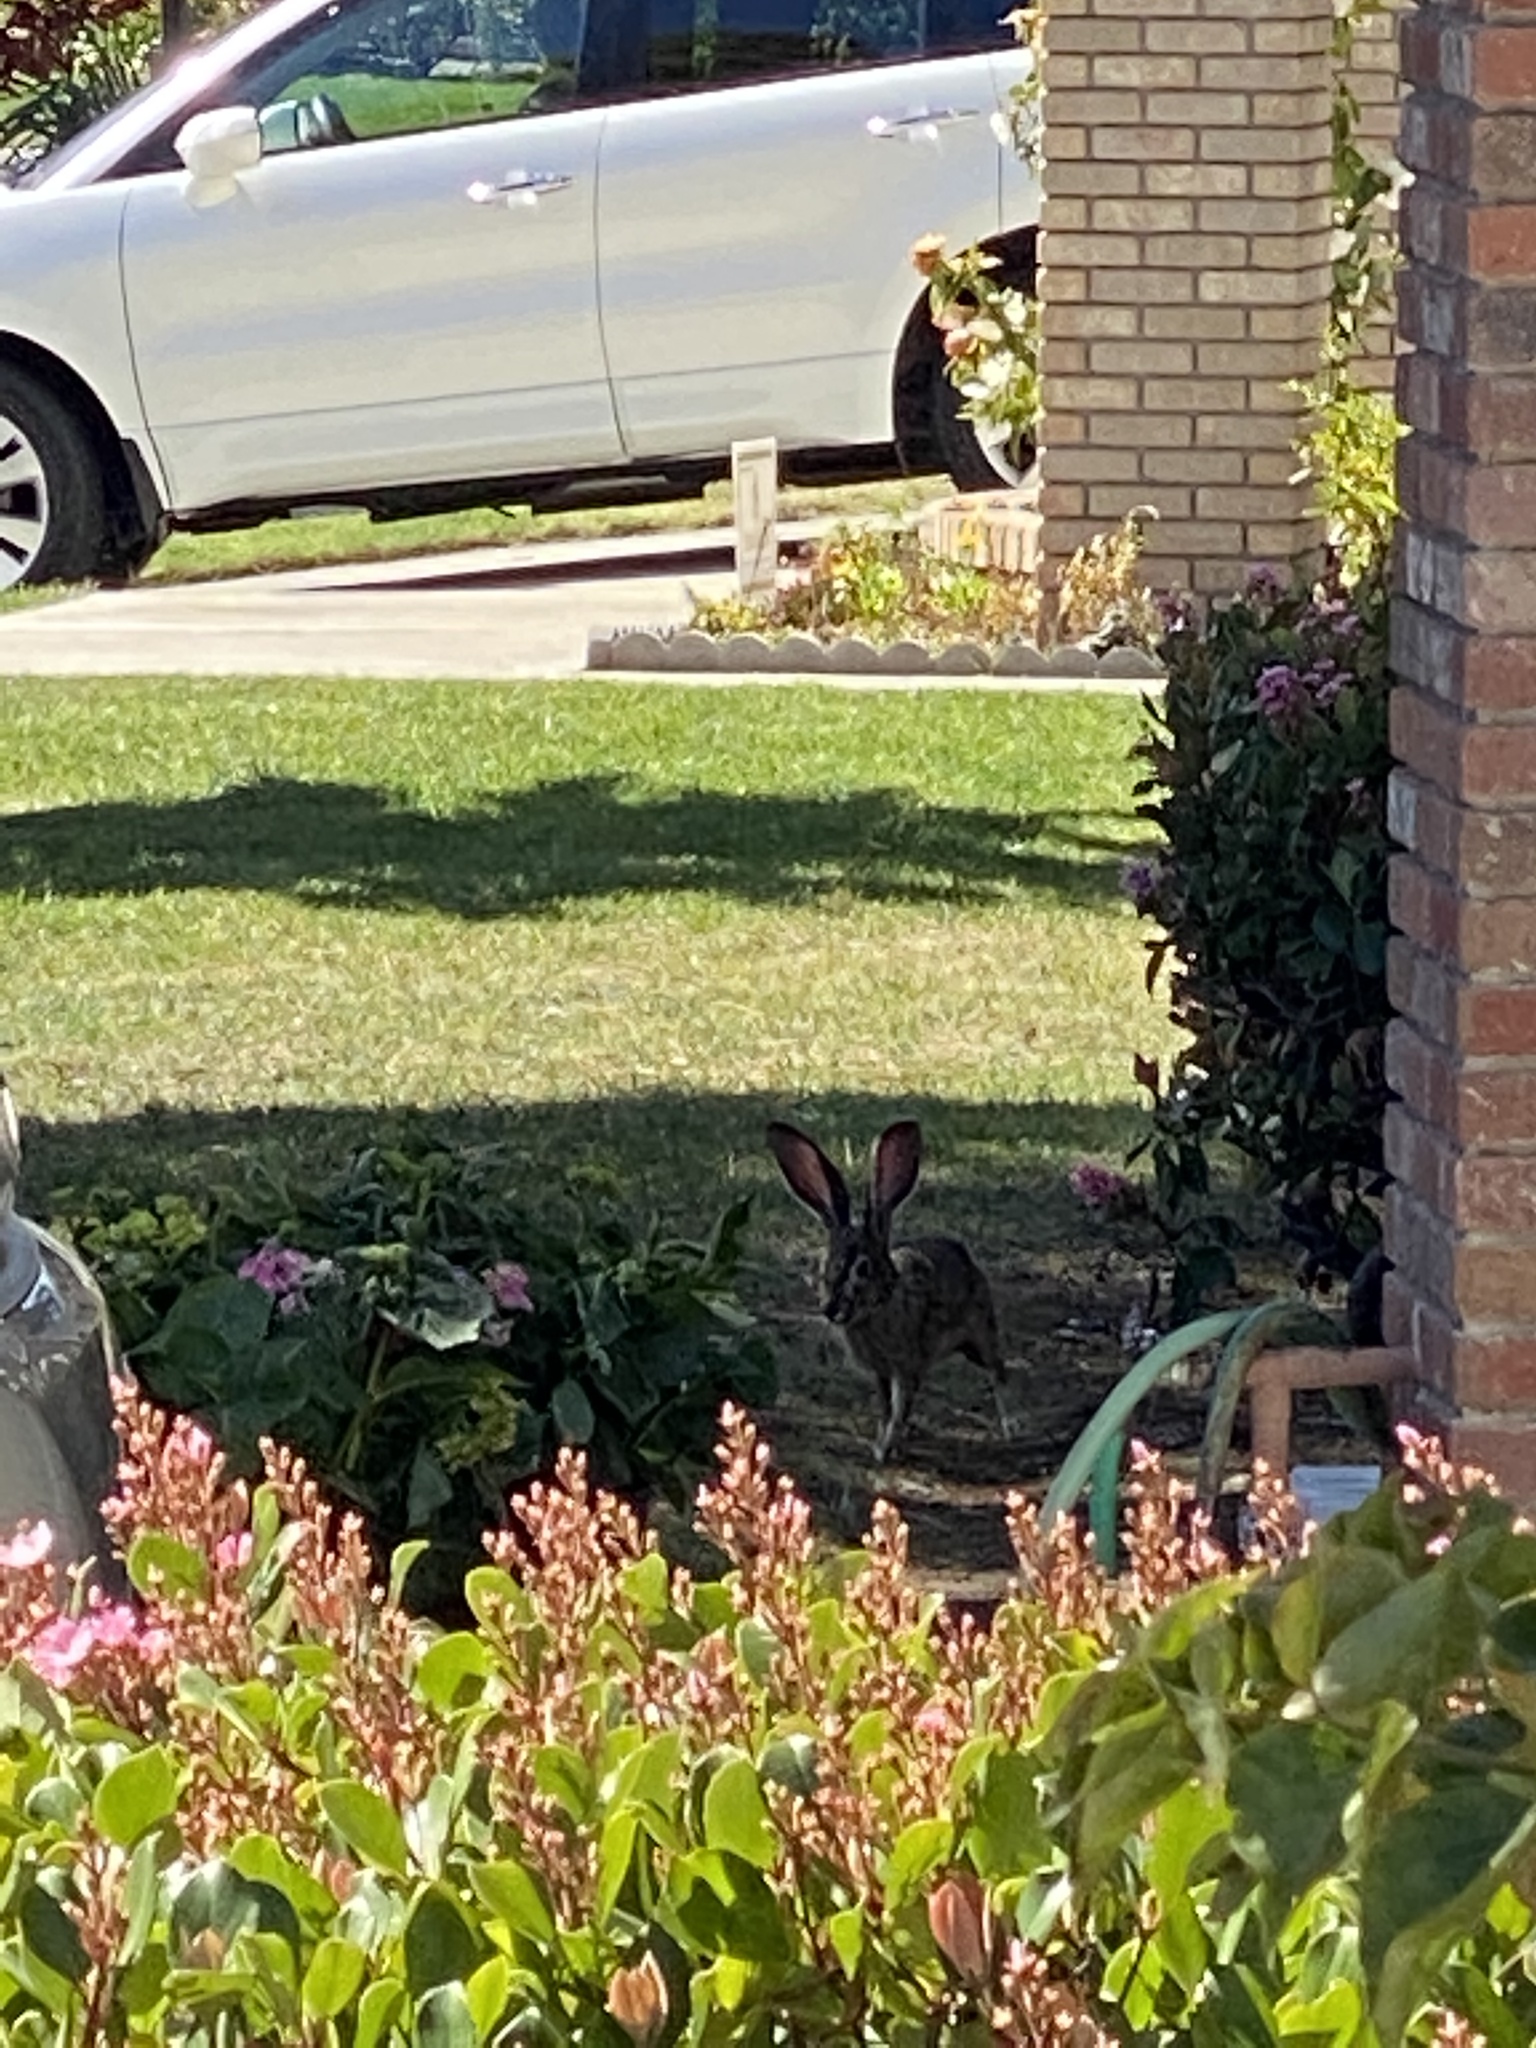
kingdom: Animalia
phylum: Chordata
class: Mammalia
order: Lagomorpha
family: Leporidae
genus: Lepus
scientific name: Lepus californicus
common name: Black-tailed jackrabbit
